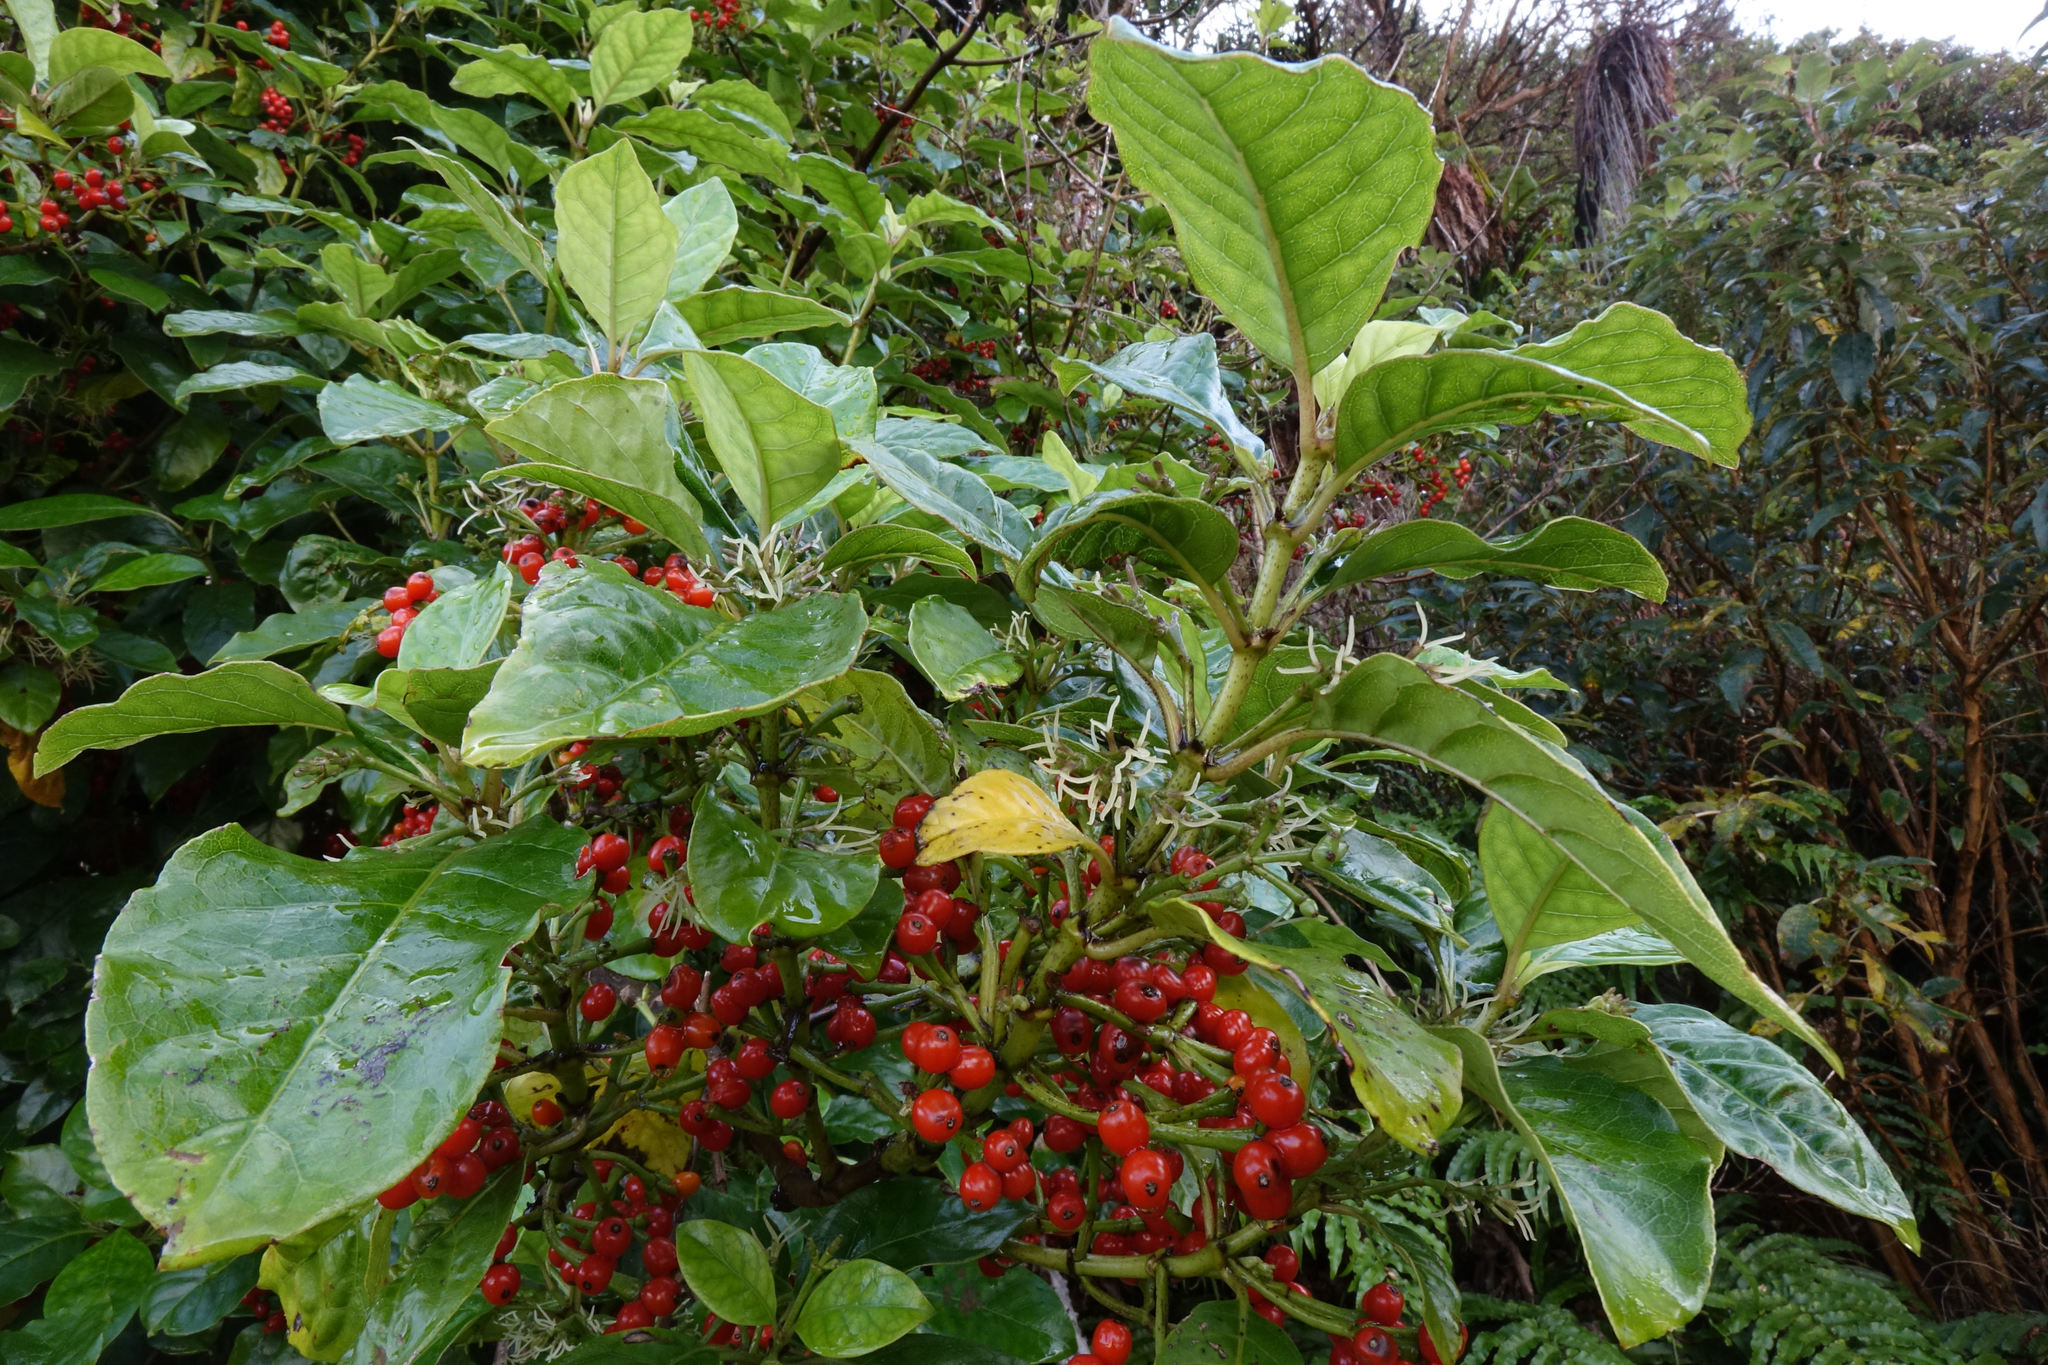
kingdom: Plantae
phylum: Tracheophyta
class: Magnoliopsida
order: Gentianales
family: Rubiaceae
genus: Coprosma
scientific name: Coprosma autumnalis
